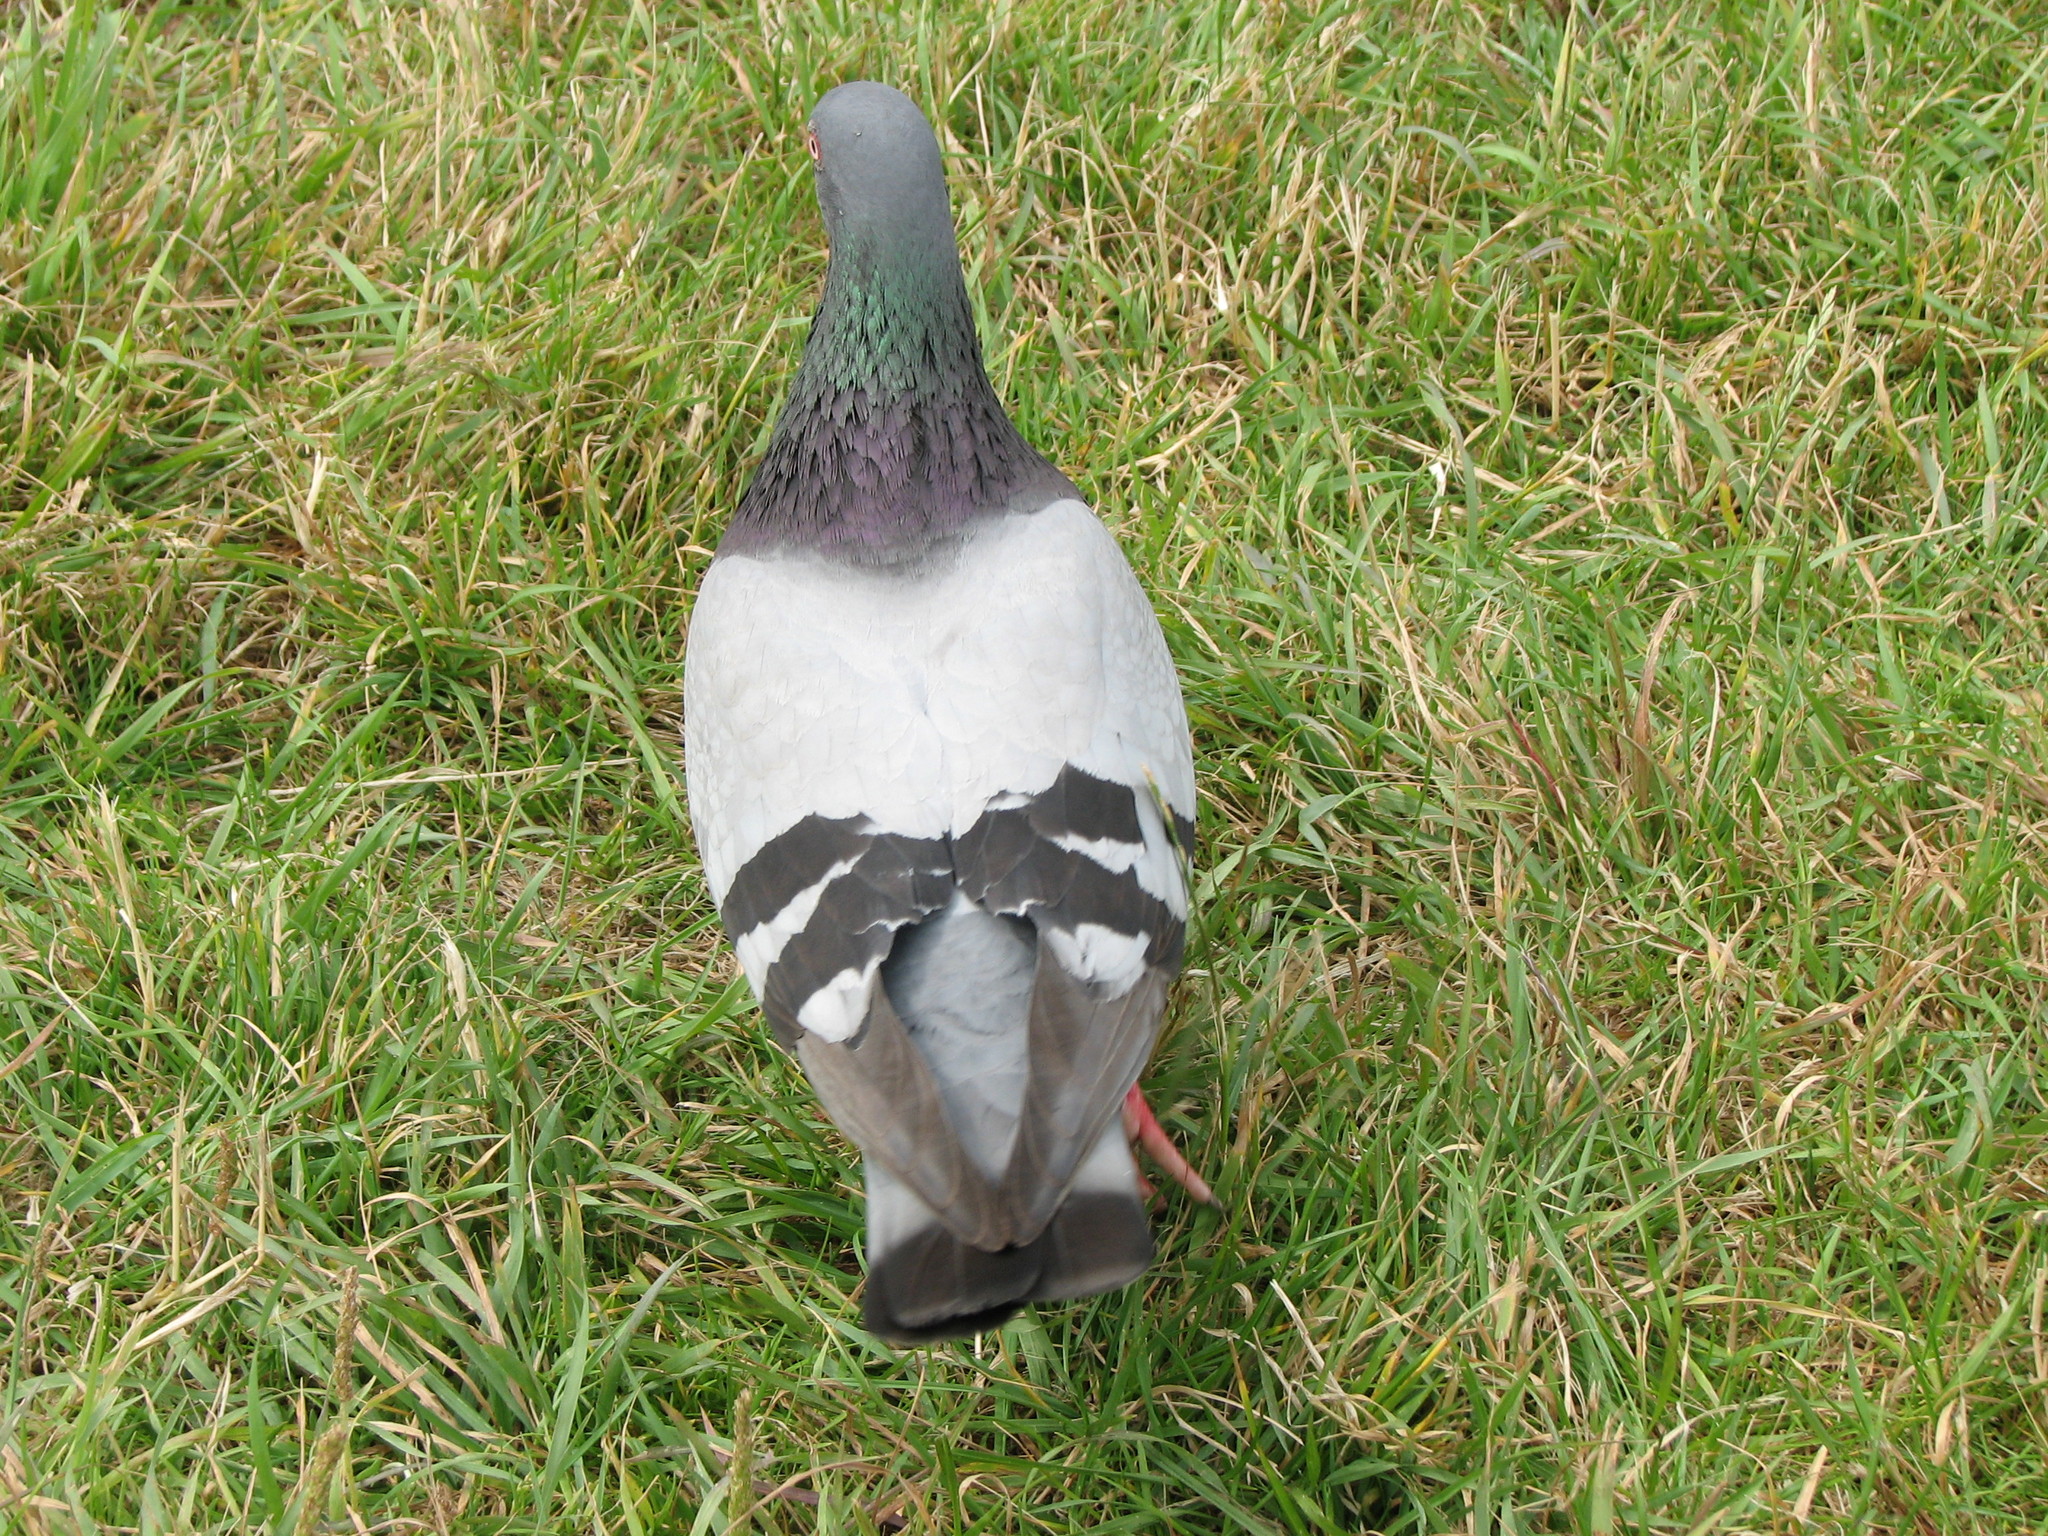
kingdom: Animalia
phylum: Chordata
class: Aves
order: Columbiformes
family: Columbidae
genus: Columba
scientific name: Columba livia
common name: Rock pigeon
